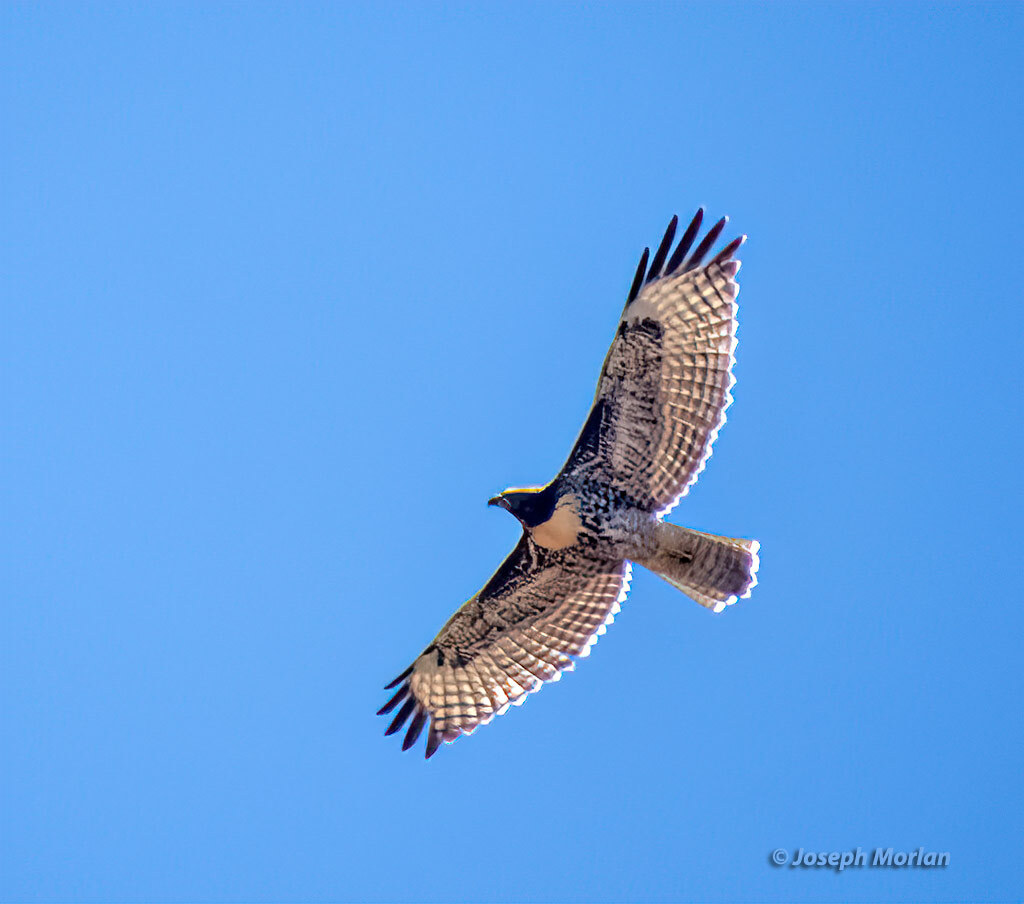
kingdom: Animalia
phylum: Chordata
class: Aves
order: Accipitriformes
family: Accipitridae
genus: Buteo
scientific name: Buteo jamaicensis
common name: Red-tailed hawk
